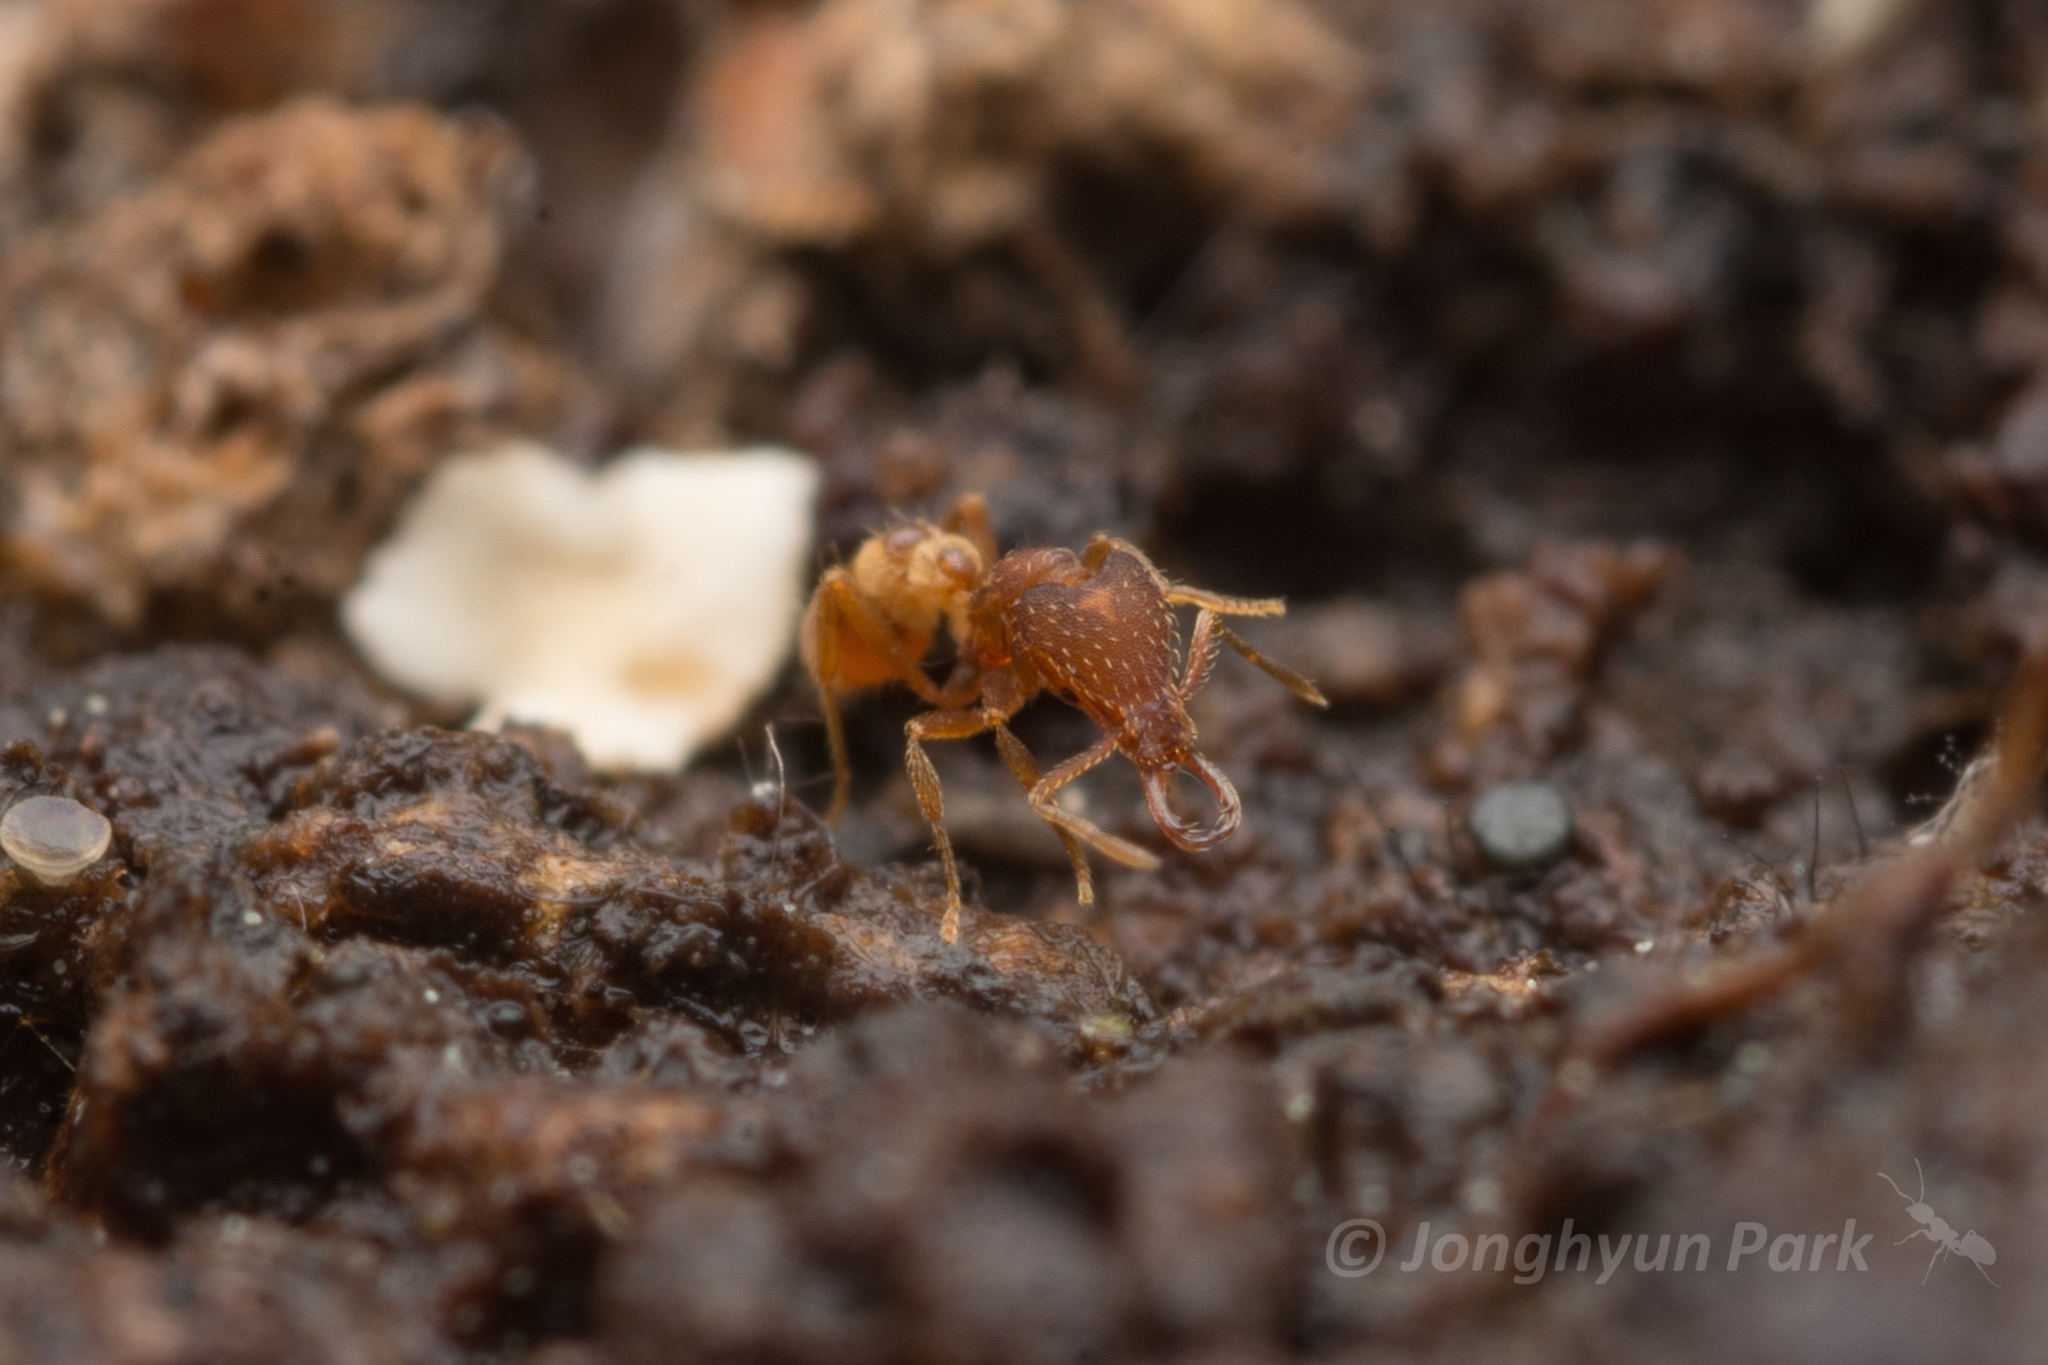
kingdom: Animalia
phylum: Arthropoda
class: Insecta
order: Hymenoptera
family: Formicidae
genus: Strumigenys
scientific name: Strumigenys lewisi
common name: Ant
